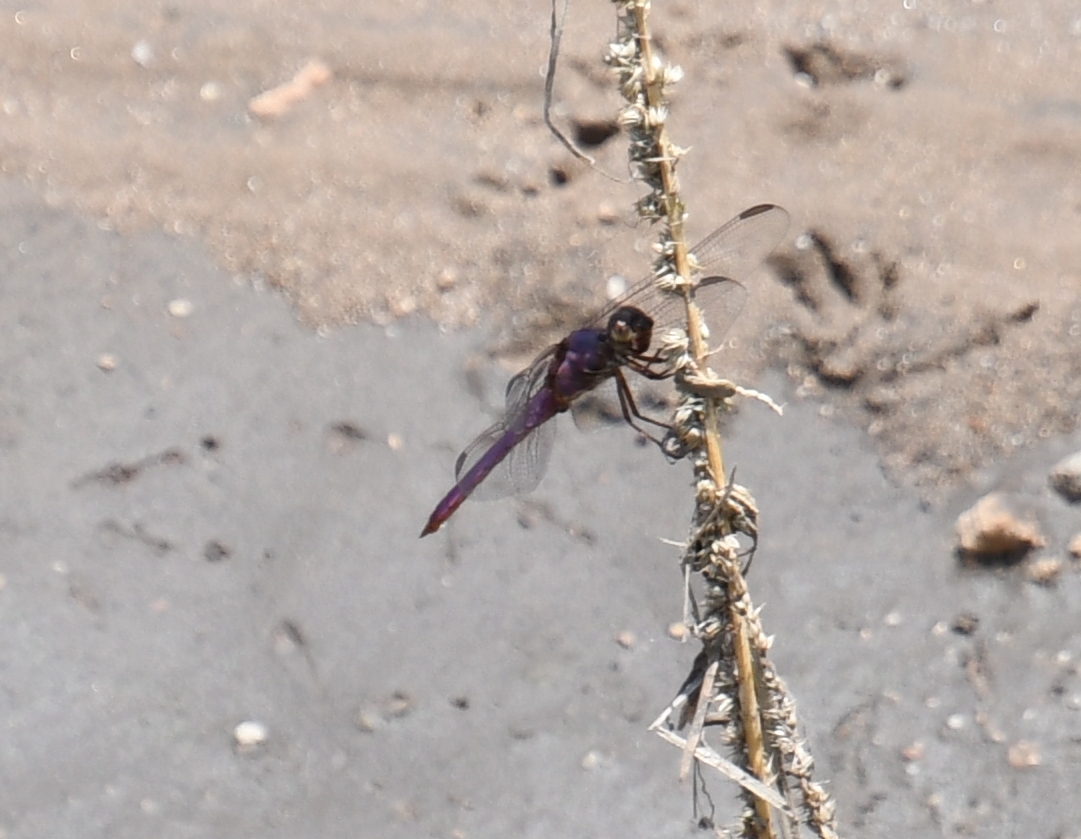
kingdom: Animalia
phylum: Arthropoda
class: Insecta
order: Odonata
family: Libellulidae
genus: Orthemis
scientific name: Orthemis ferruginea
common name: Roseate skimmer
